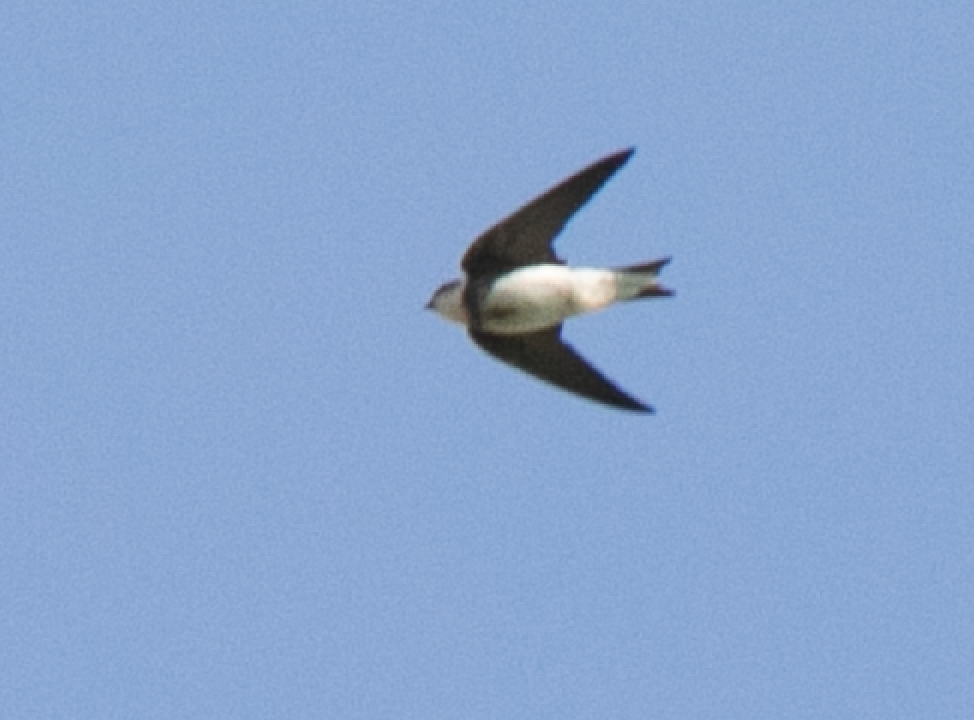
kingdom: Animalia
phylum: Chordata
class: Aves
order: Passeriformes
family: Hirundinidae
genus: Riparia
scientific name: Riparia riparia
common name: Sand martin
